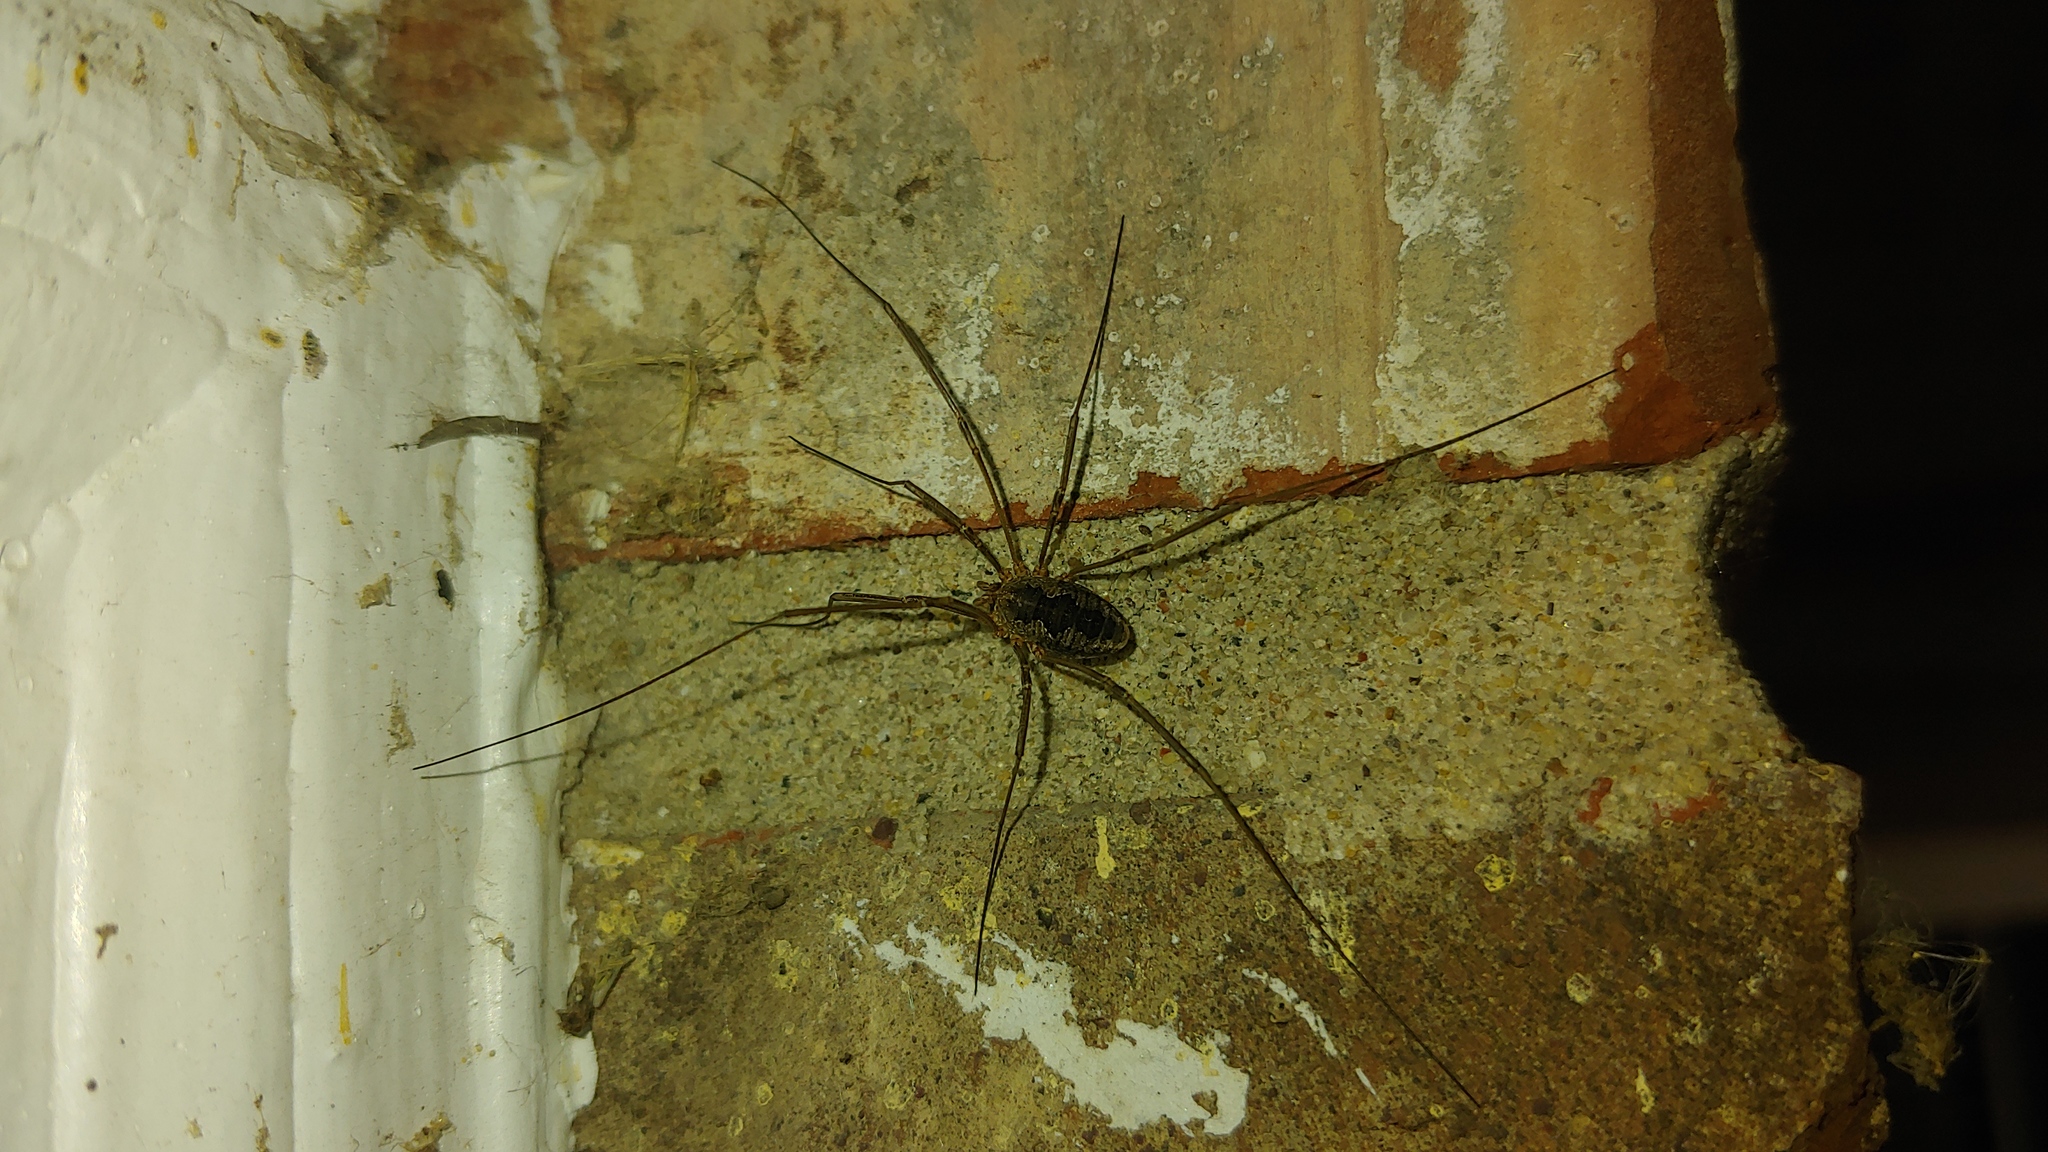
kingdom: Animalia
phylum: Arthropoda
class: Arachnida
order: Opiliones
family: Phalangiidae
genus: Phalangium
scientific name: Phalangium opilio
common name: Daddy longleg
